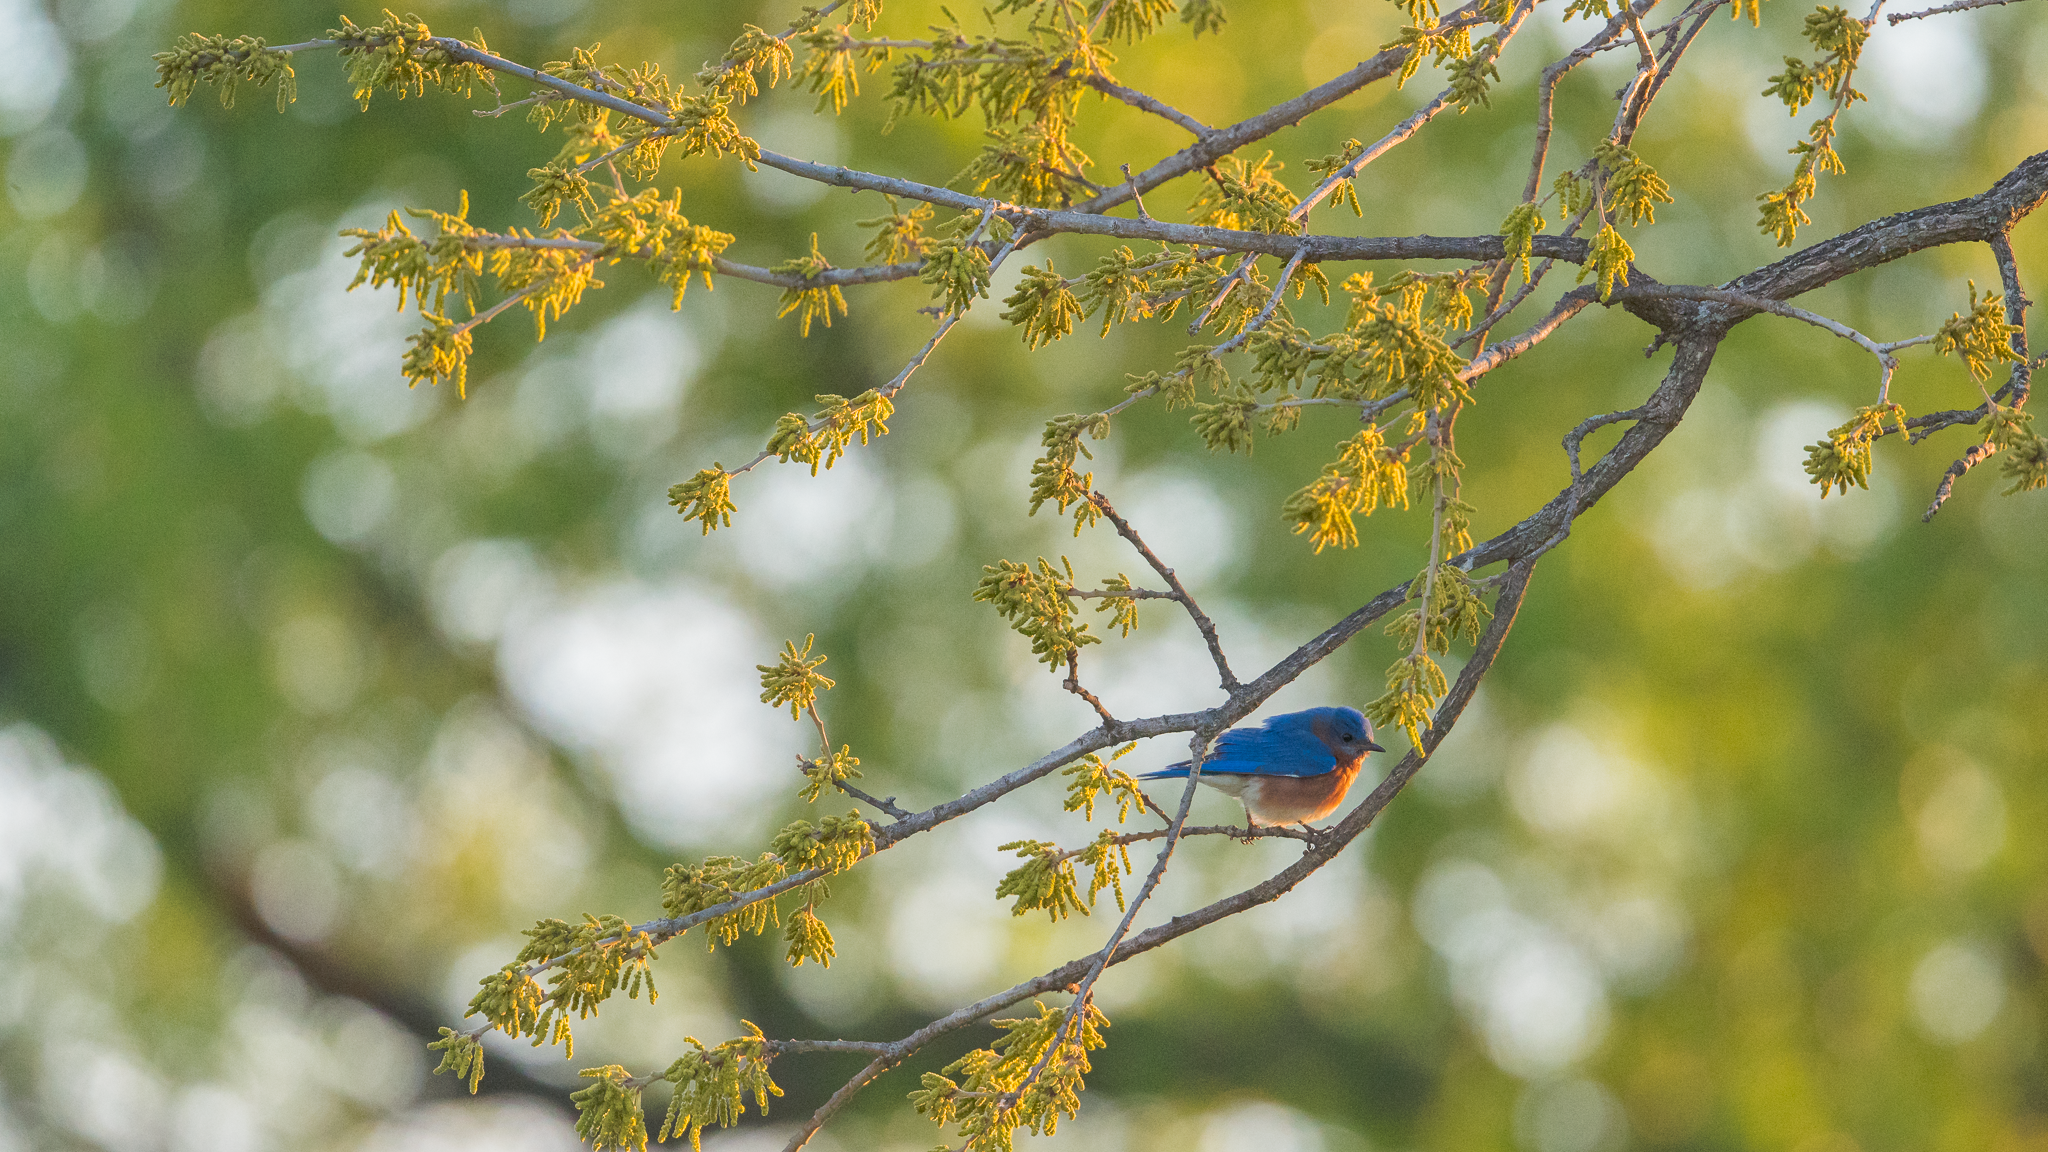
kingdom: Animalia
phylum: Chordata
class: Aves
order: Passeriformes
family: Turdidae
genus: Sialia
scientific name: Sialia sialis
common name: Eastern bluebird
